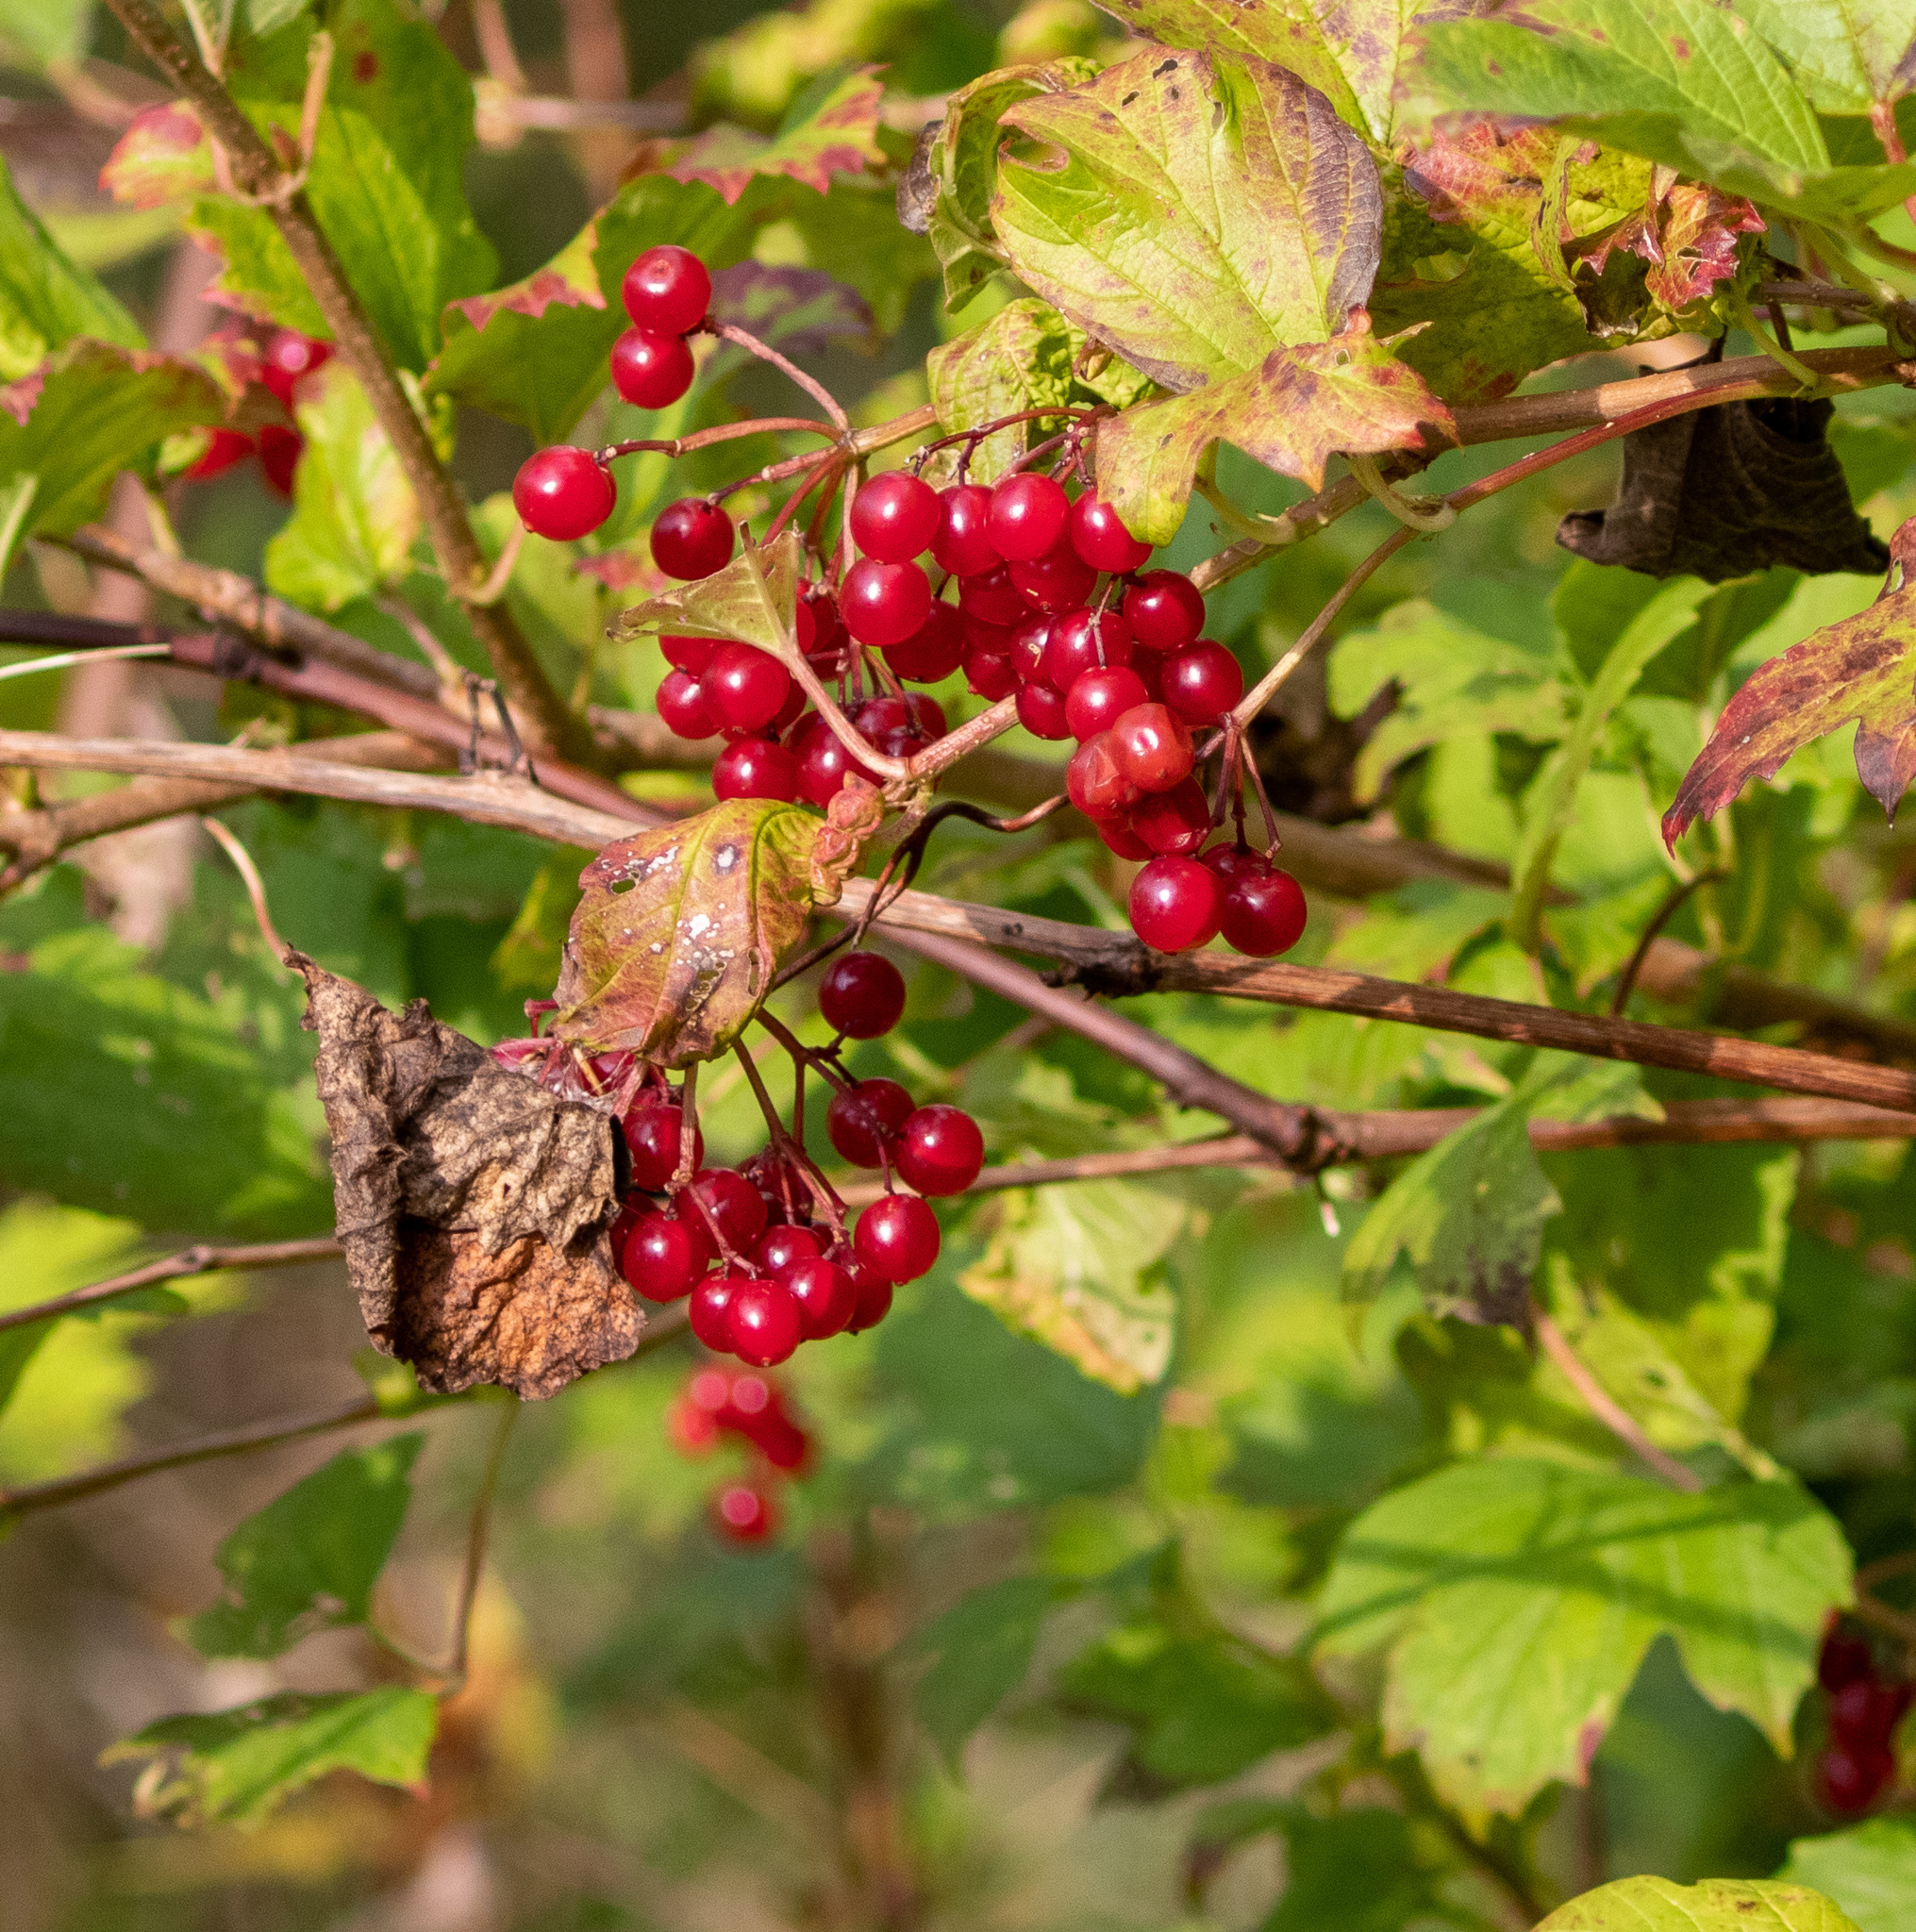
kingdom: Plantae
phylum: Tracheophyta
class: Magnoliopsida
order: Dipsacales
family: Viburnaceae
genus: Viburnum
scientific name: Viburnum opulus
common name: Guelder-rose
